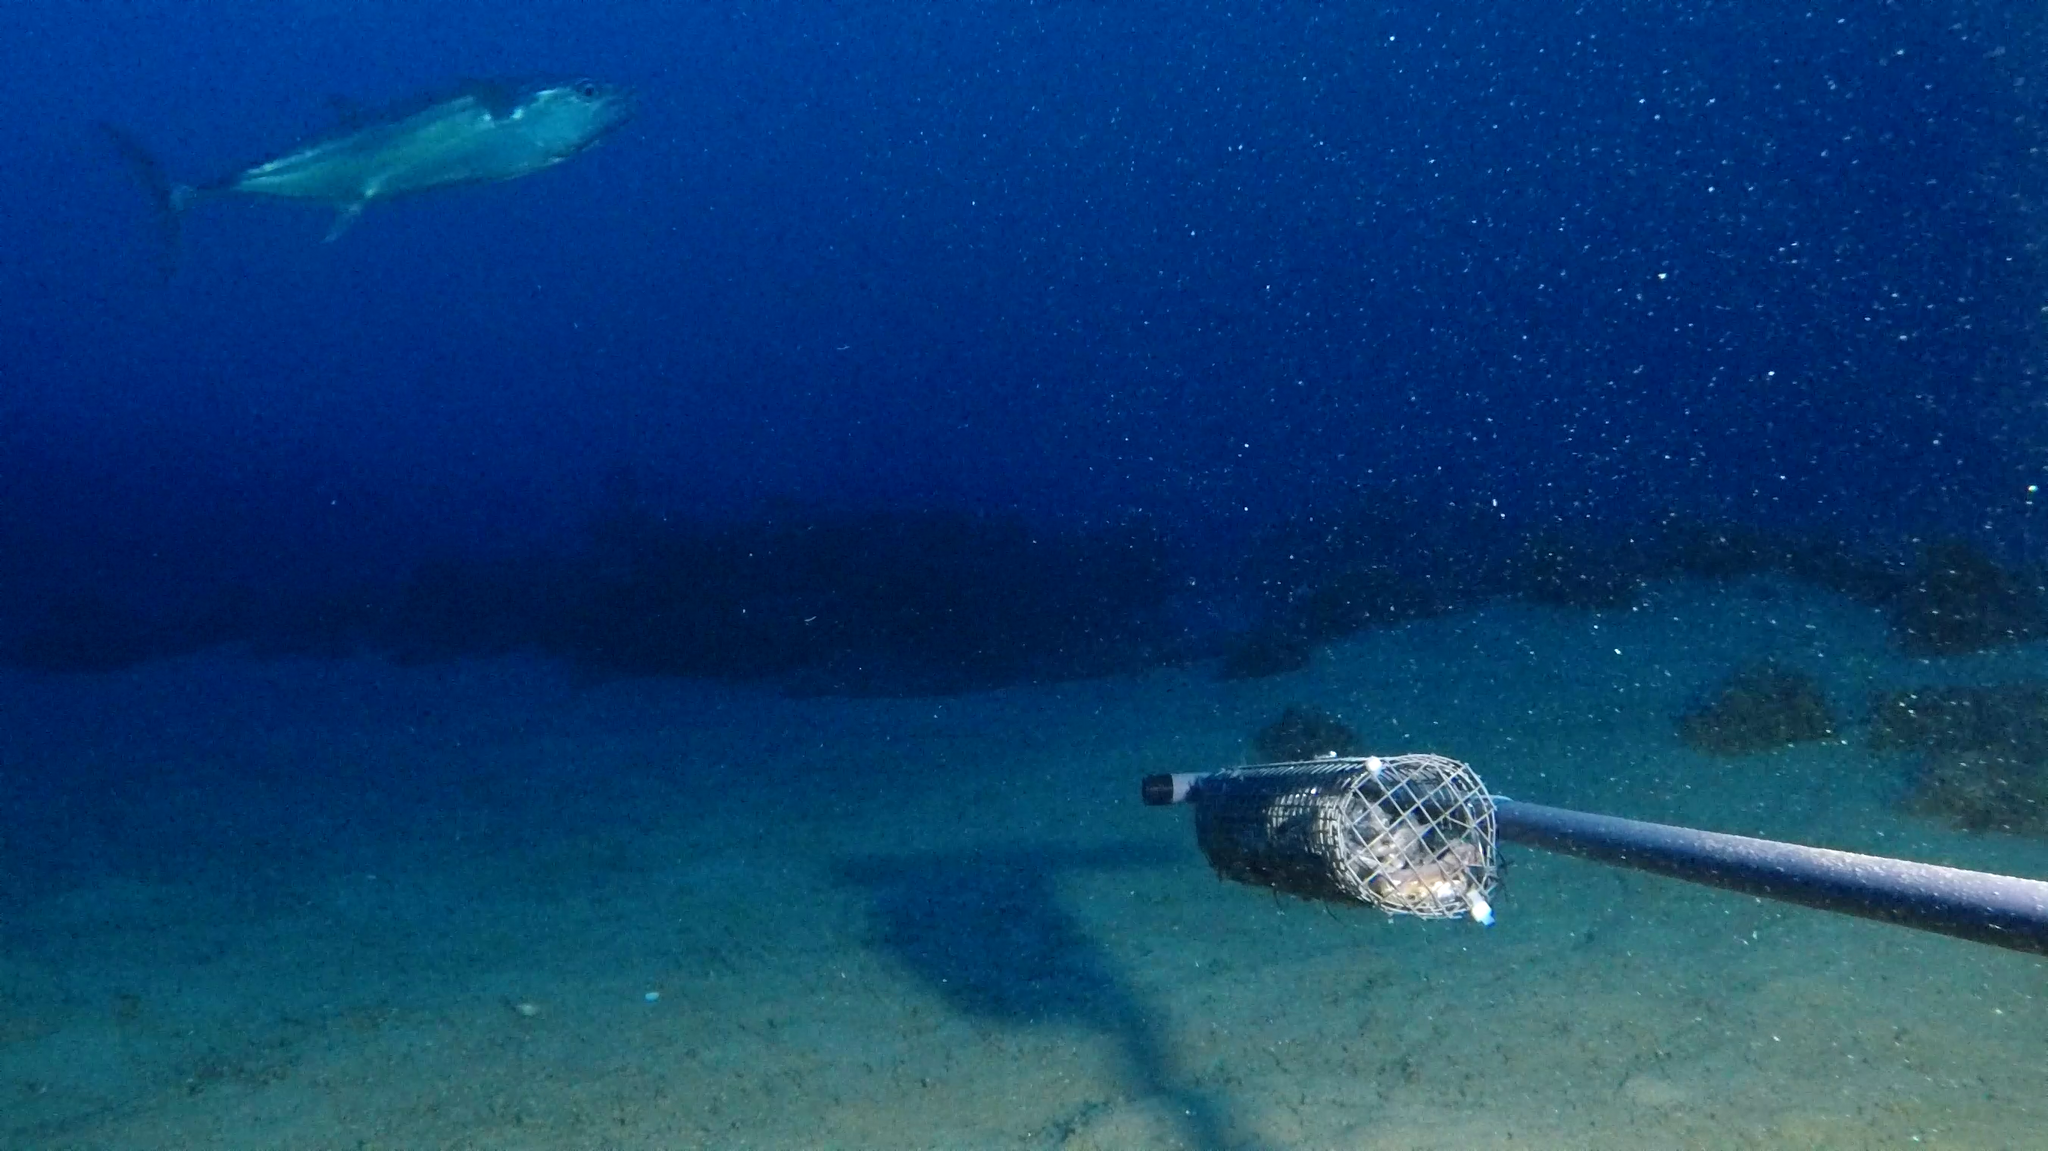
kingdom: Animalia
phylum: Chordata
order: Perciformes
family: Scombridae
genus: Gymnosarda
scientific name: Gymnosarda unicolor
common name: Dogtooth tuna
